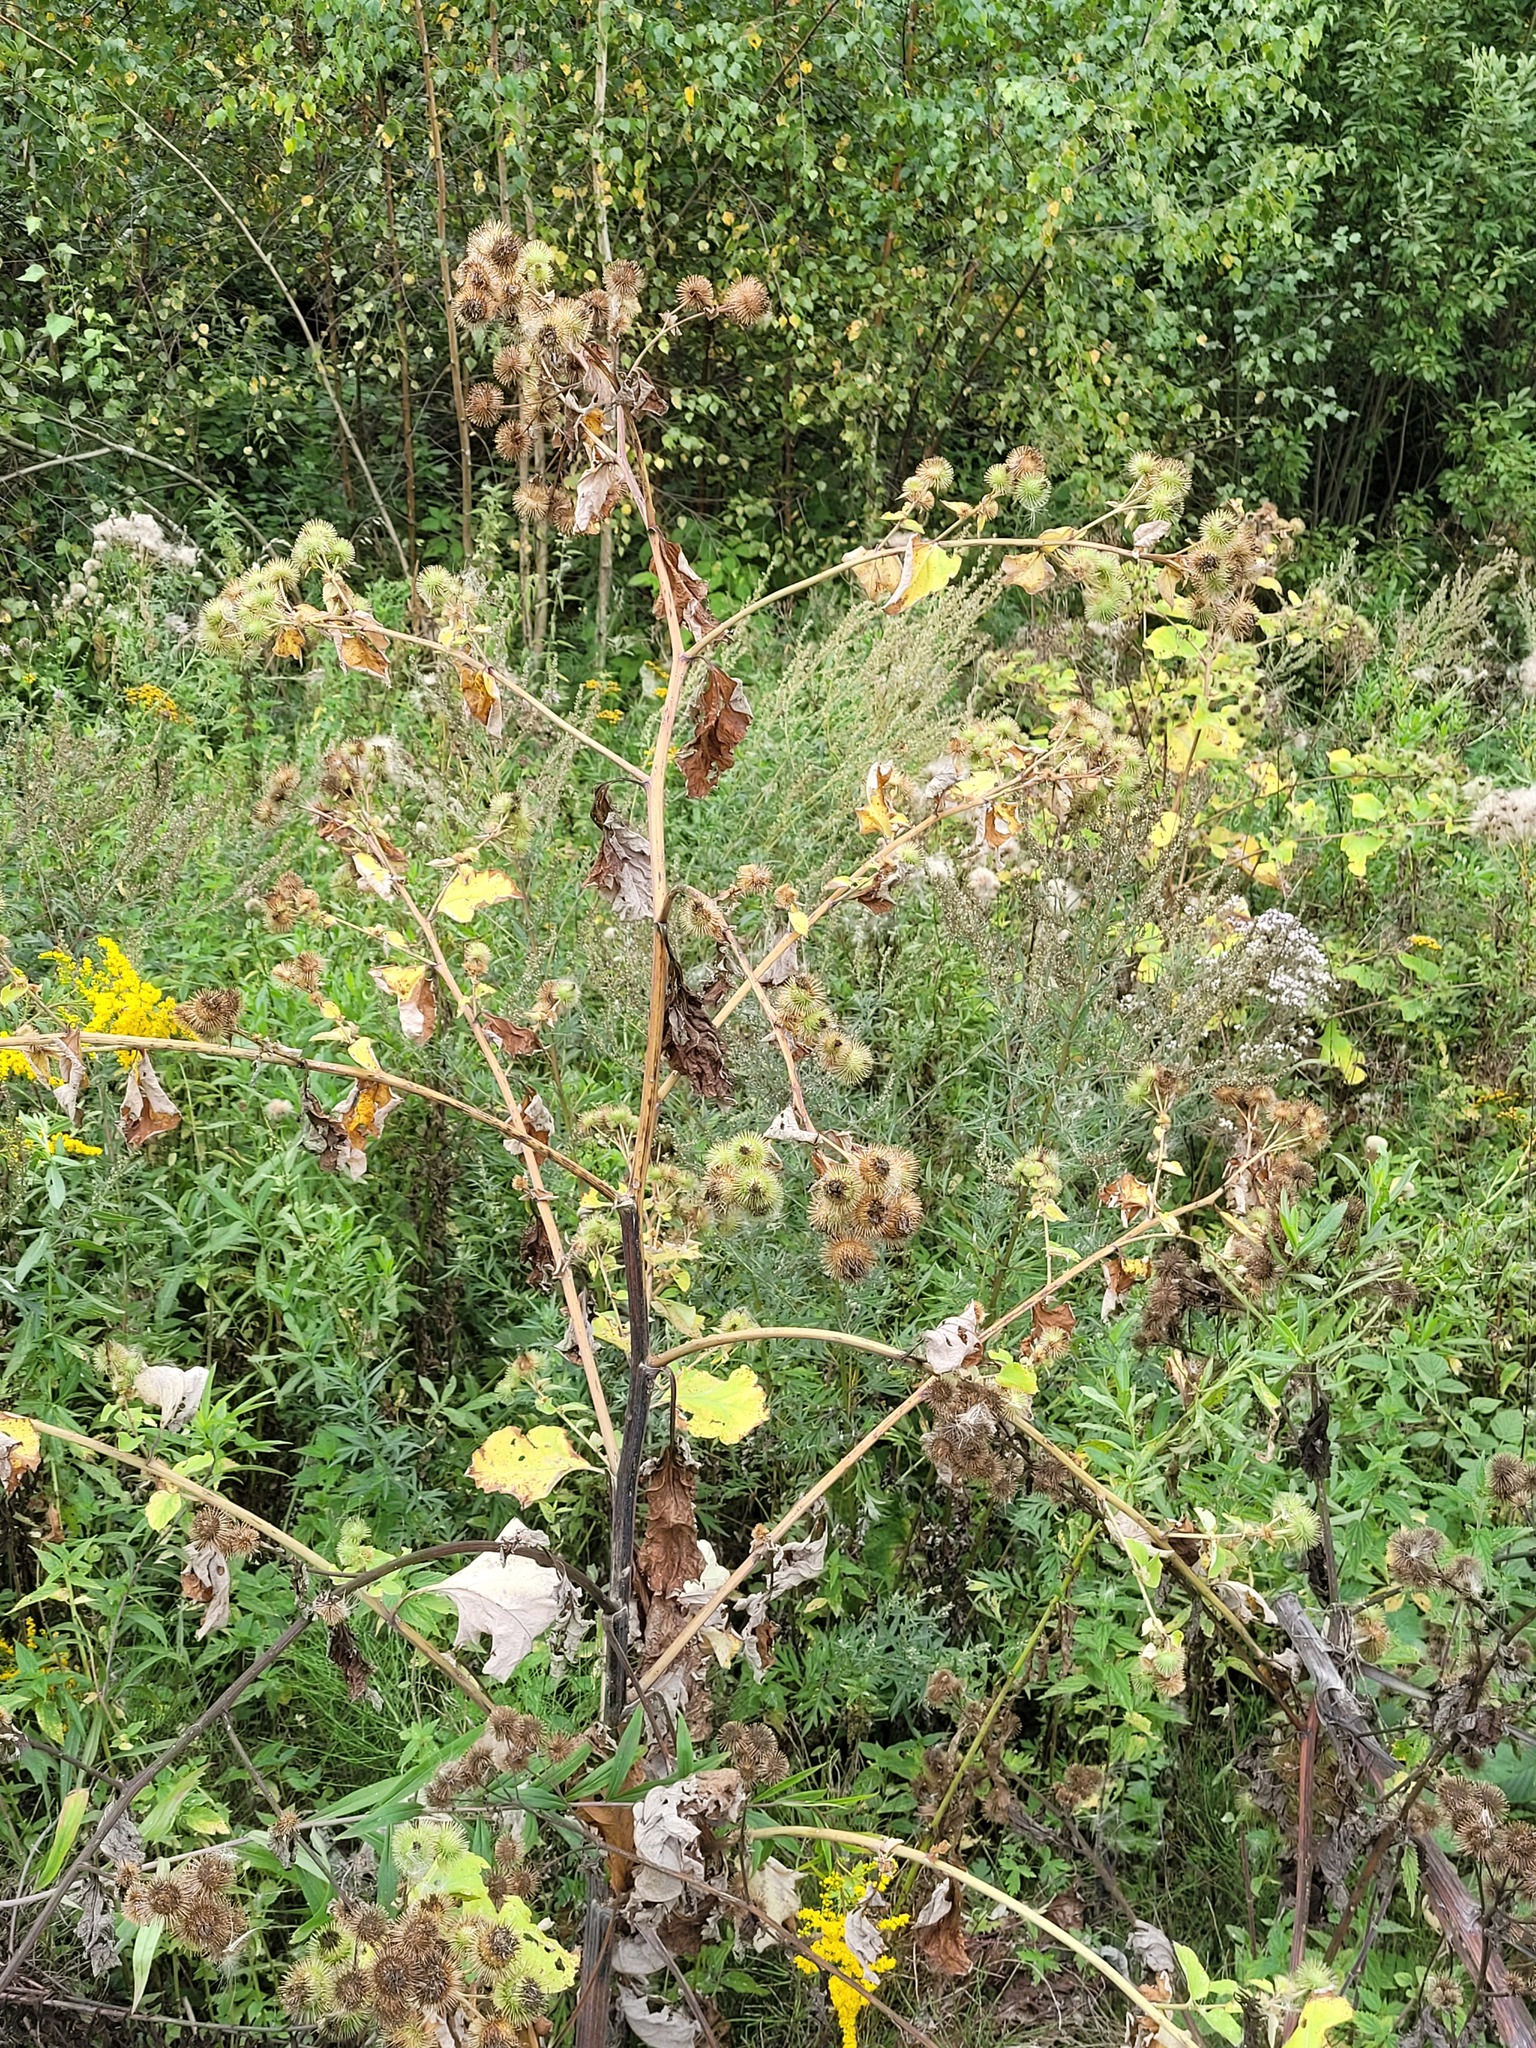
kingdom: Plantae
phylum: Tracheophyta
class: Magnoliopsida
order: Asterales
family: Asteraceae
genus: Arctium
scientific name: Arctium lappa
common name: Greater burdock
